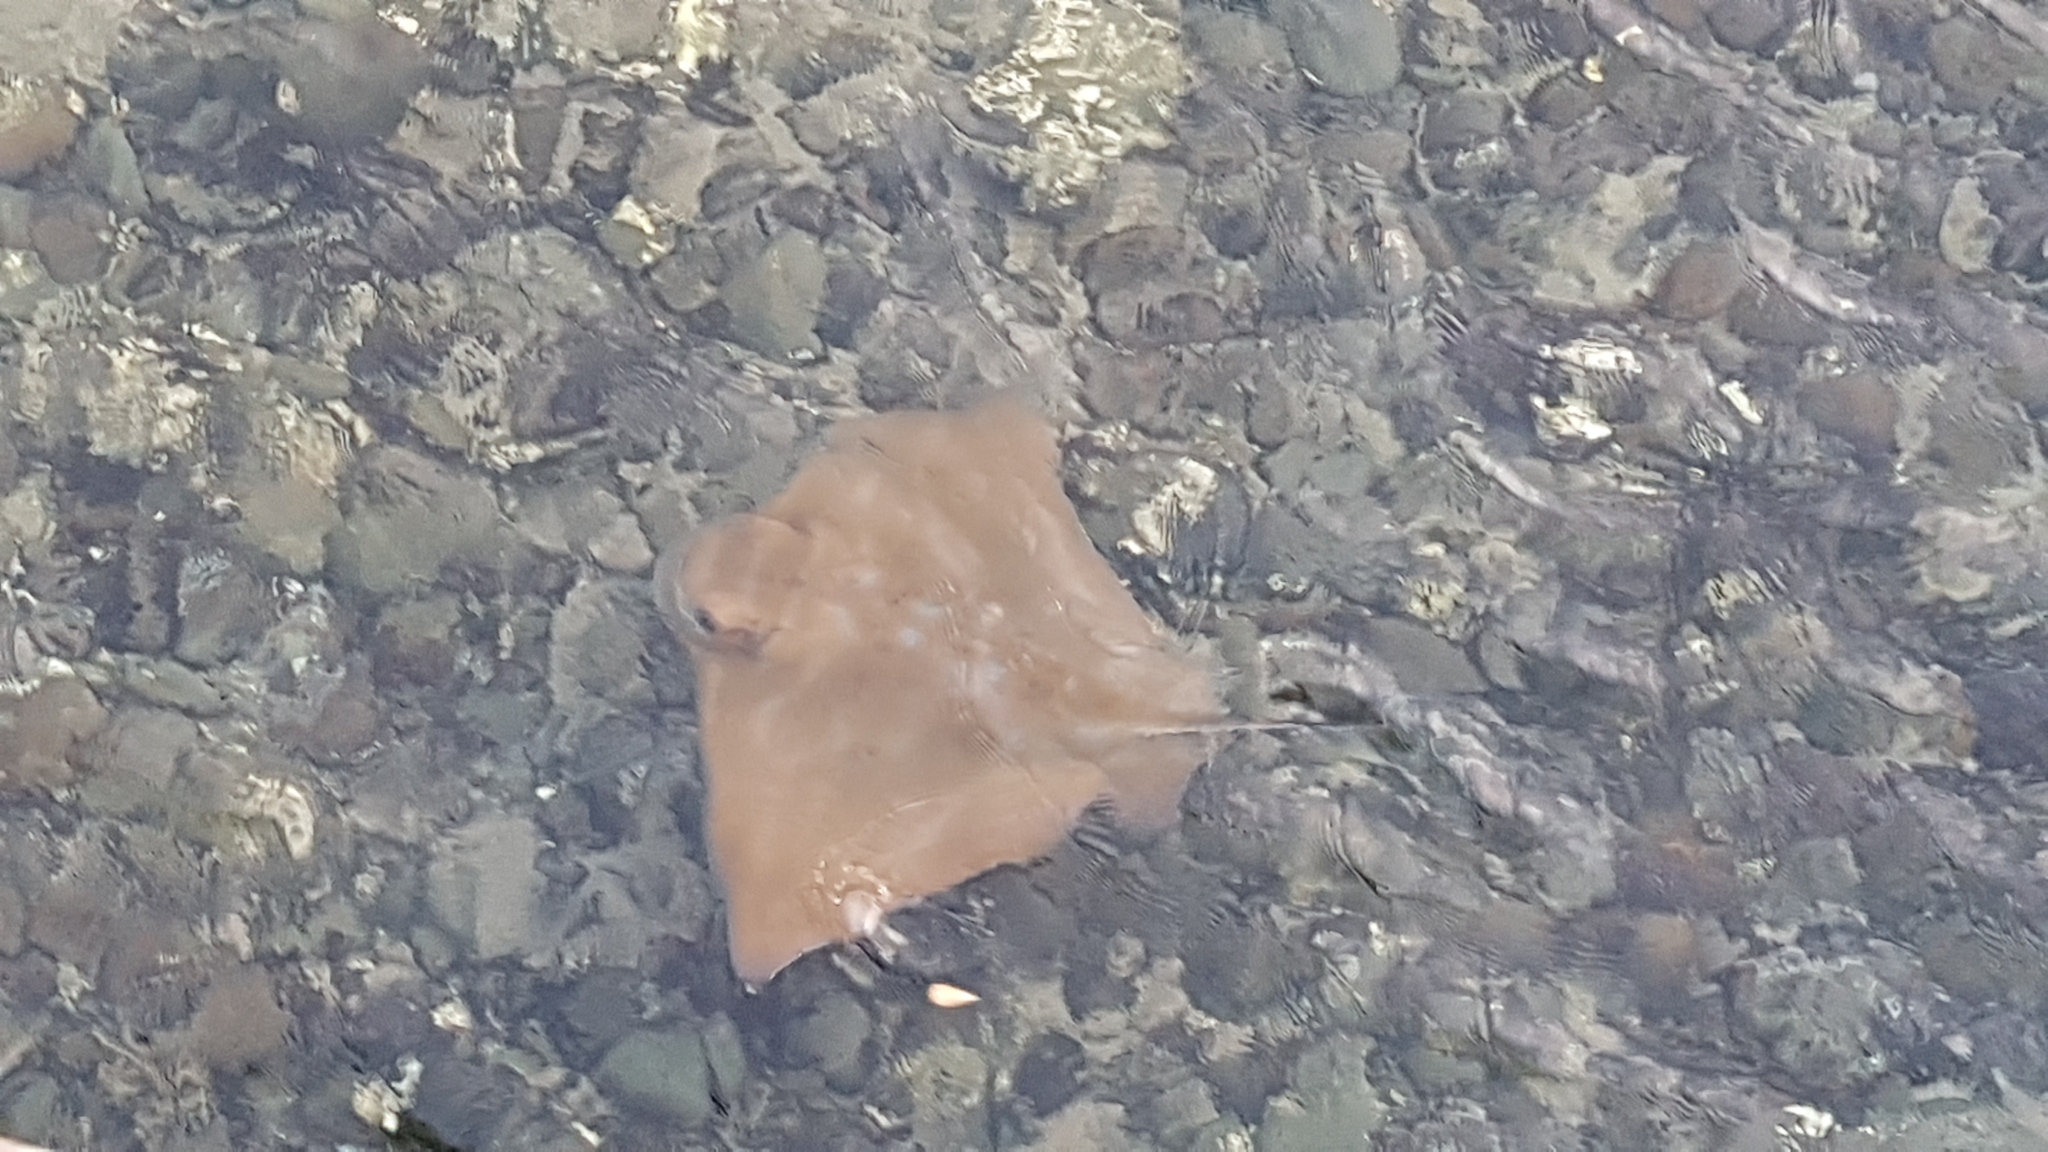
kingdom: Animalia
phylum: Chordata
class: Elasmobranchii
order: Myliobatiformes
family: Myliobatidae
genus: Myliobatis
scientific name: Myliobatis tenuicaudatus
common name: Eagle ray
